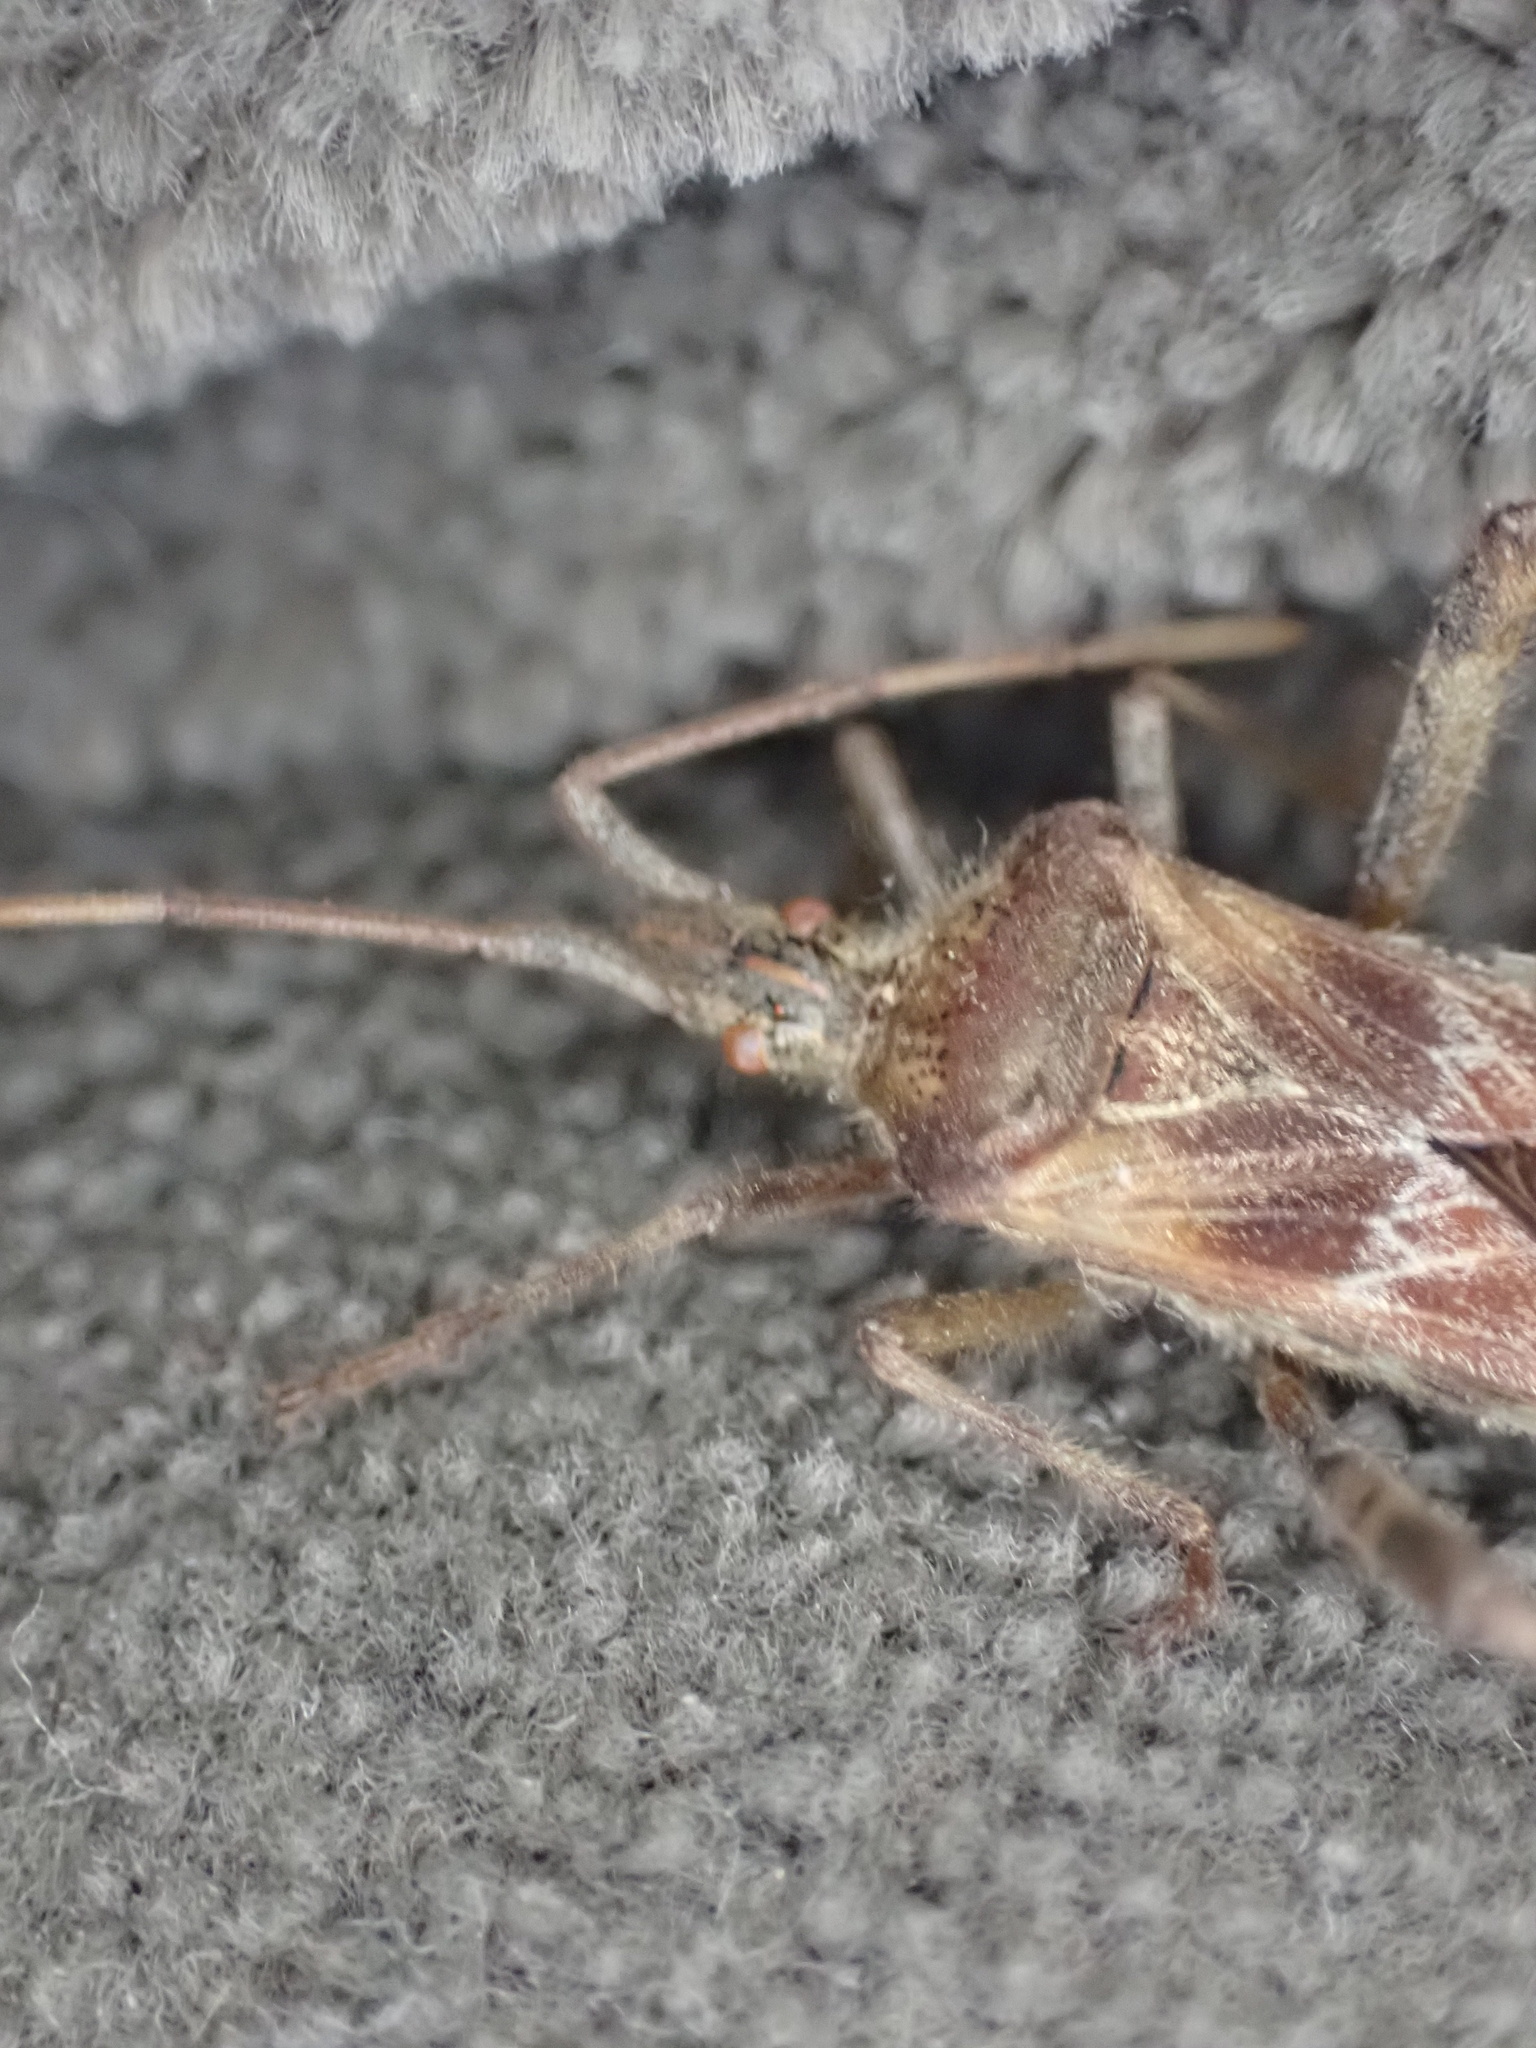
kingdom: Animalia
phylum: Arthropoda
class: Insecta
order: Hemiptera
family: Coreidae
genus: Leptoglossus
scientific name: Leptoglossus occidentalis
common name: Western conifer-seed bug
